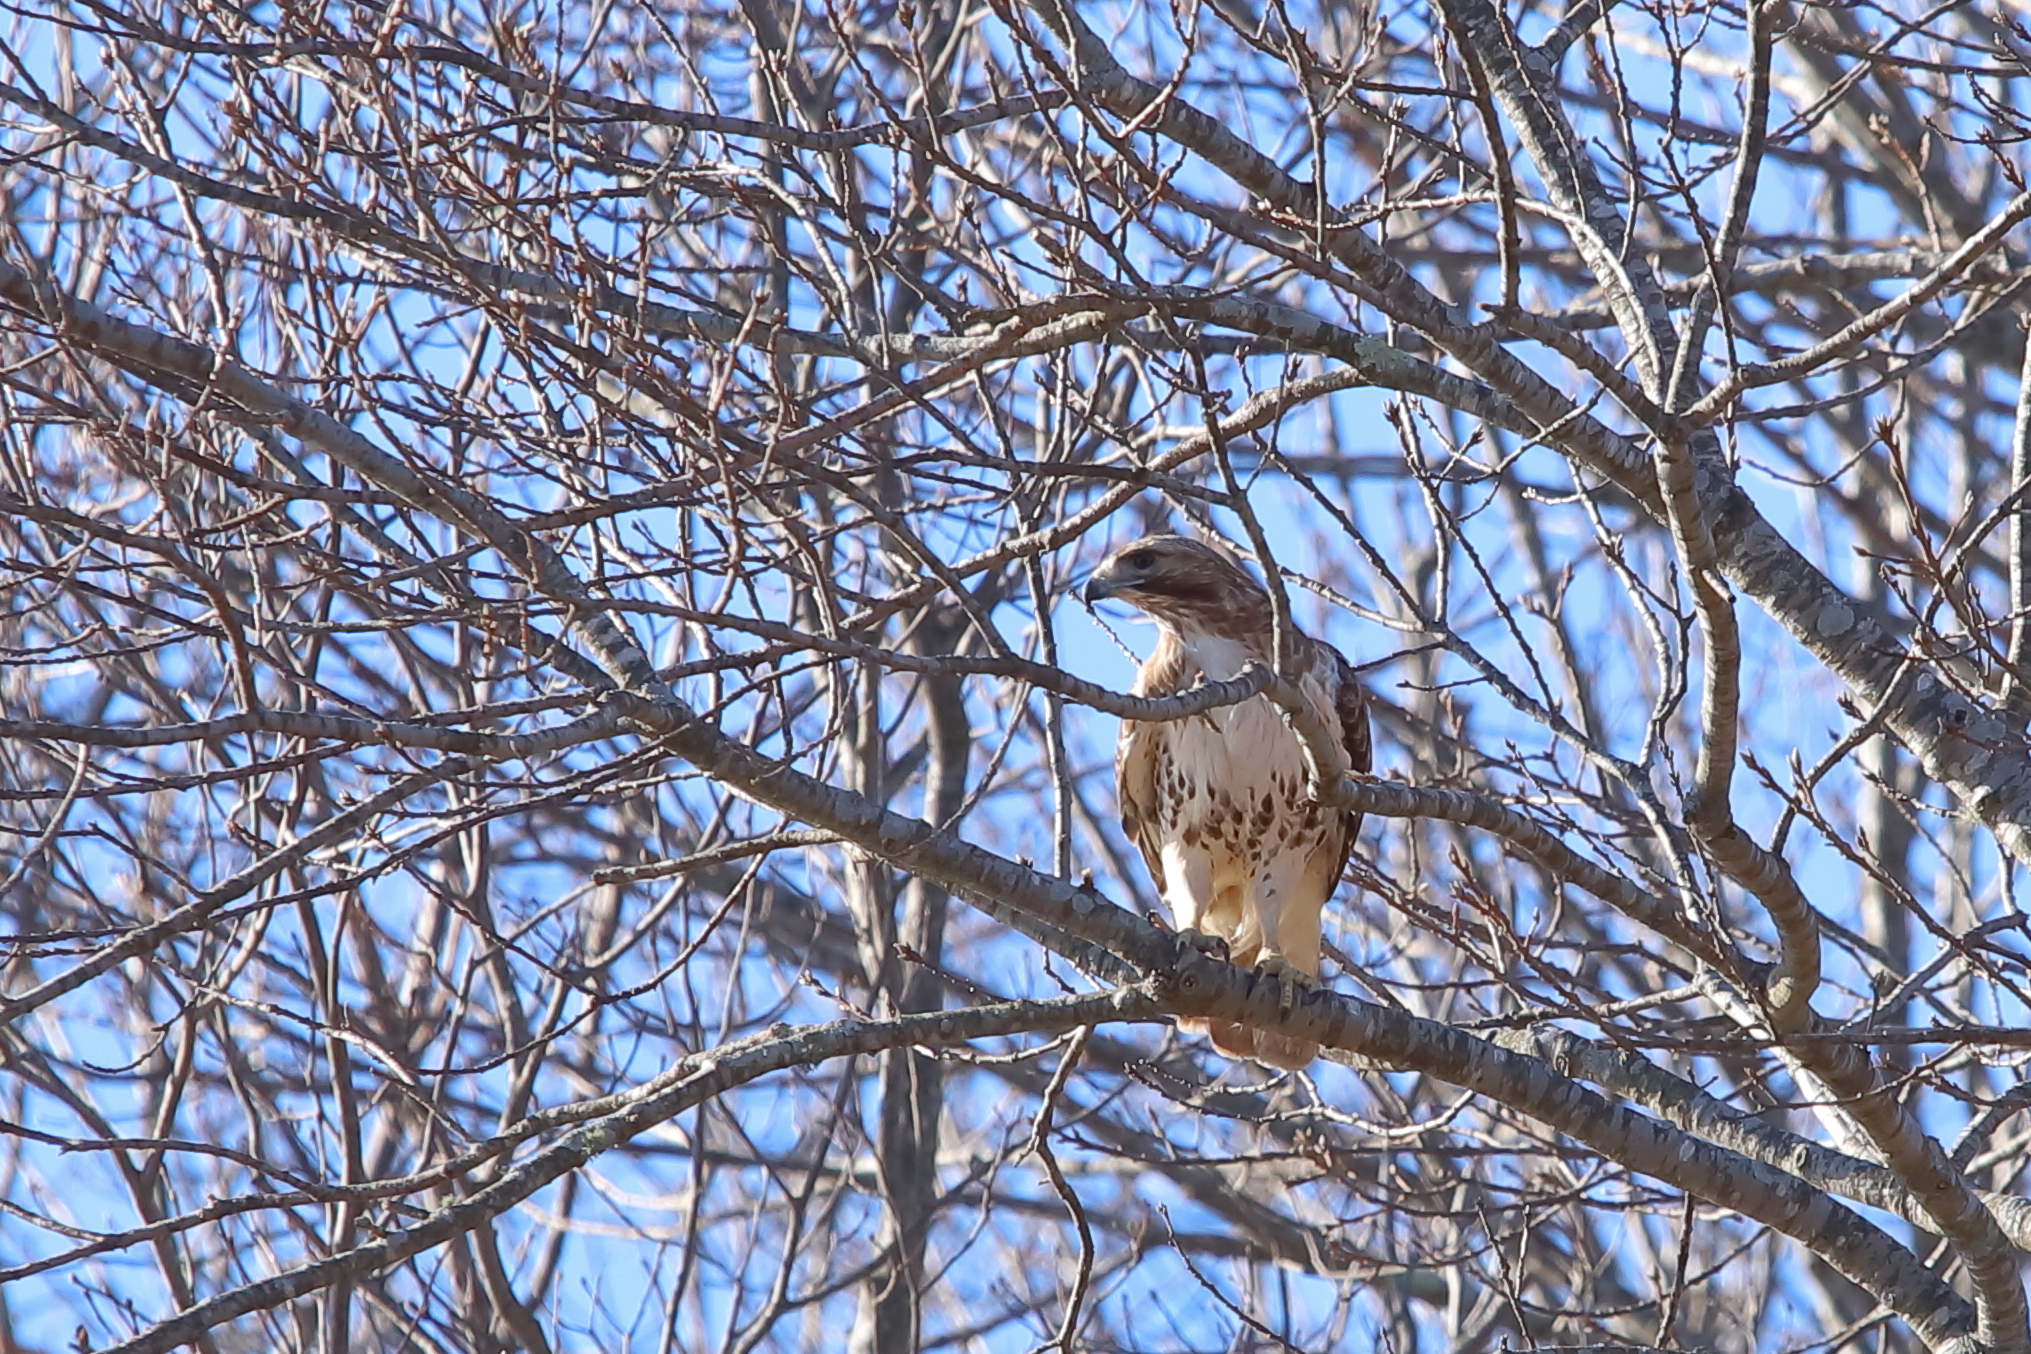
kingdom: Animalia
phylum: Chordata
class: Aves
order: Accipitriformes
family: Accipitridae
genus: Buteo
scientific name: Buteo jamaicensis
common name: Red-tailed hawk
